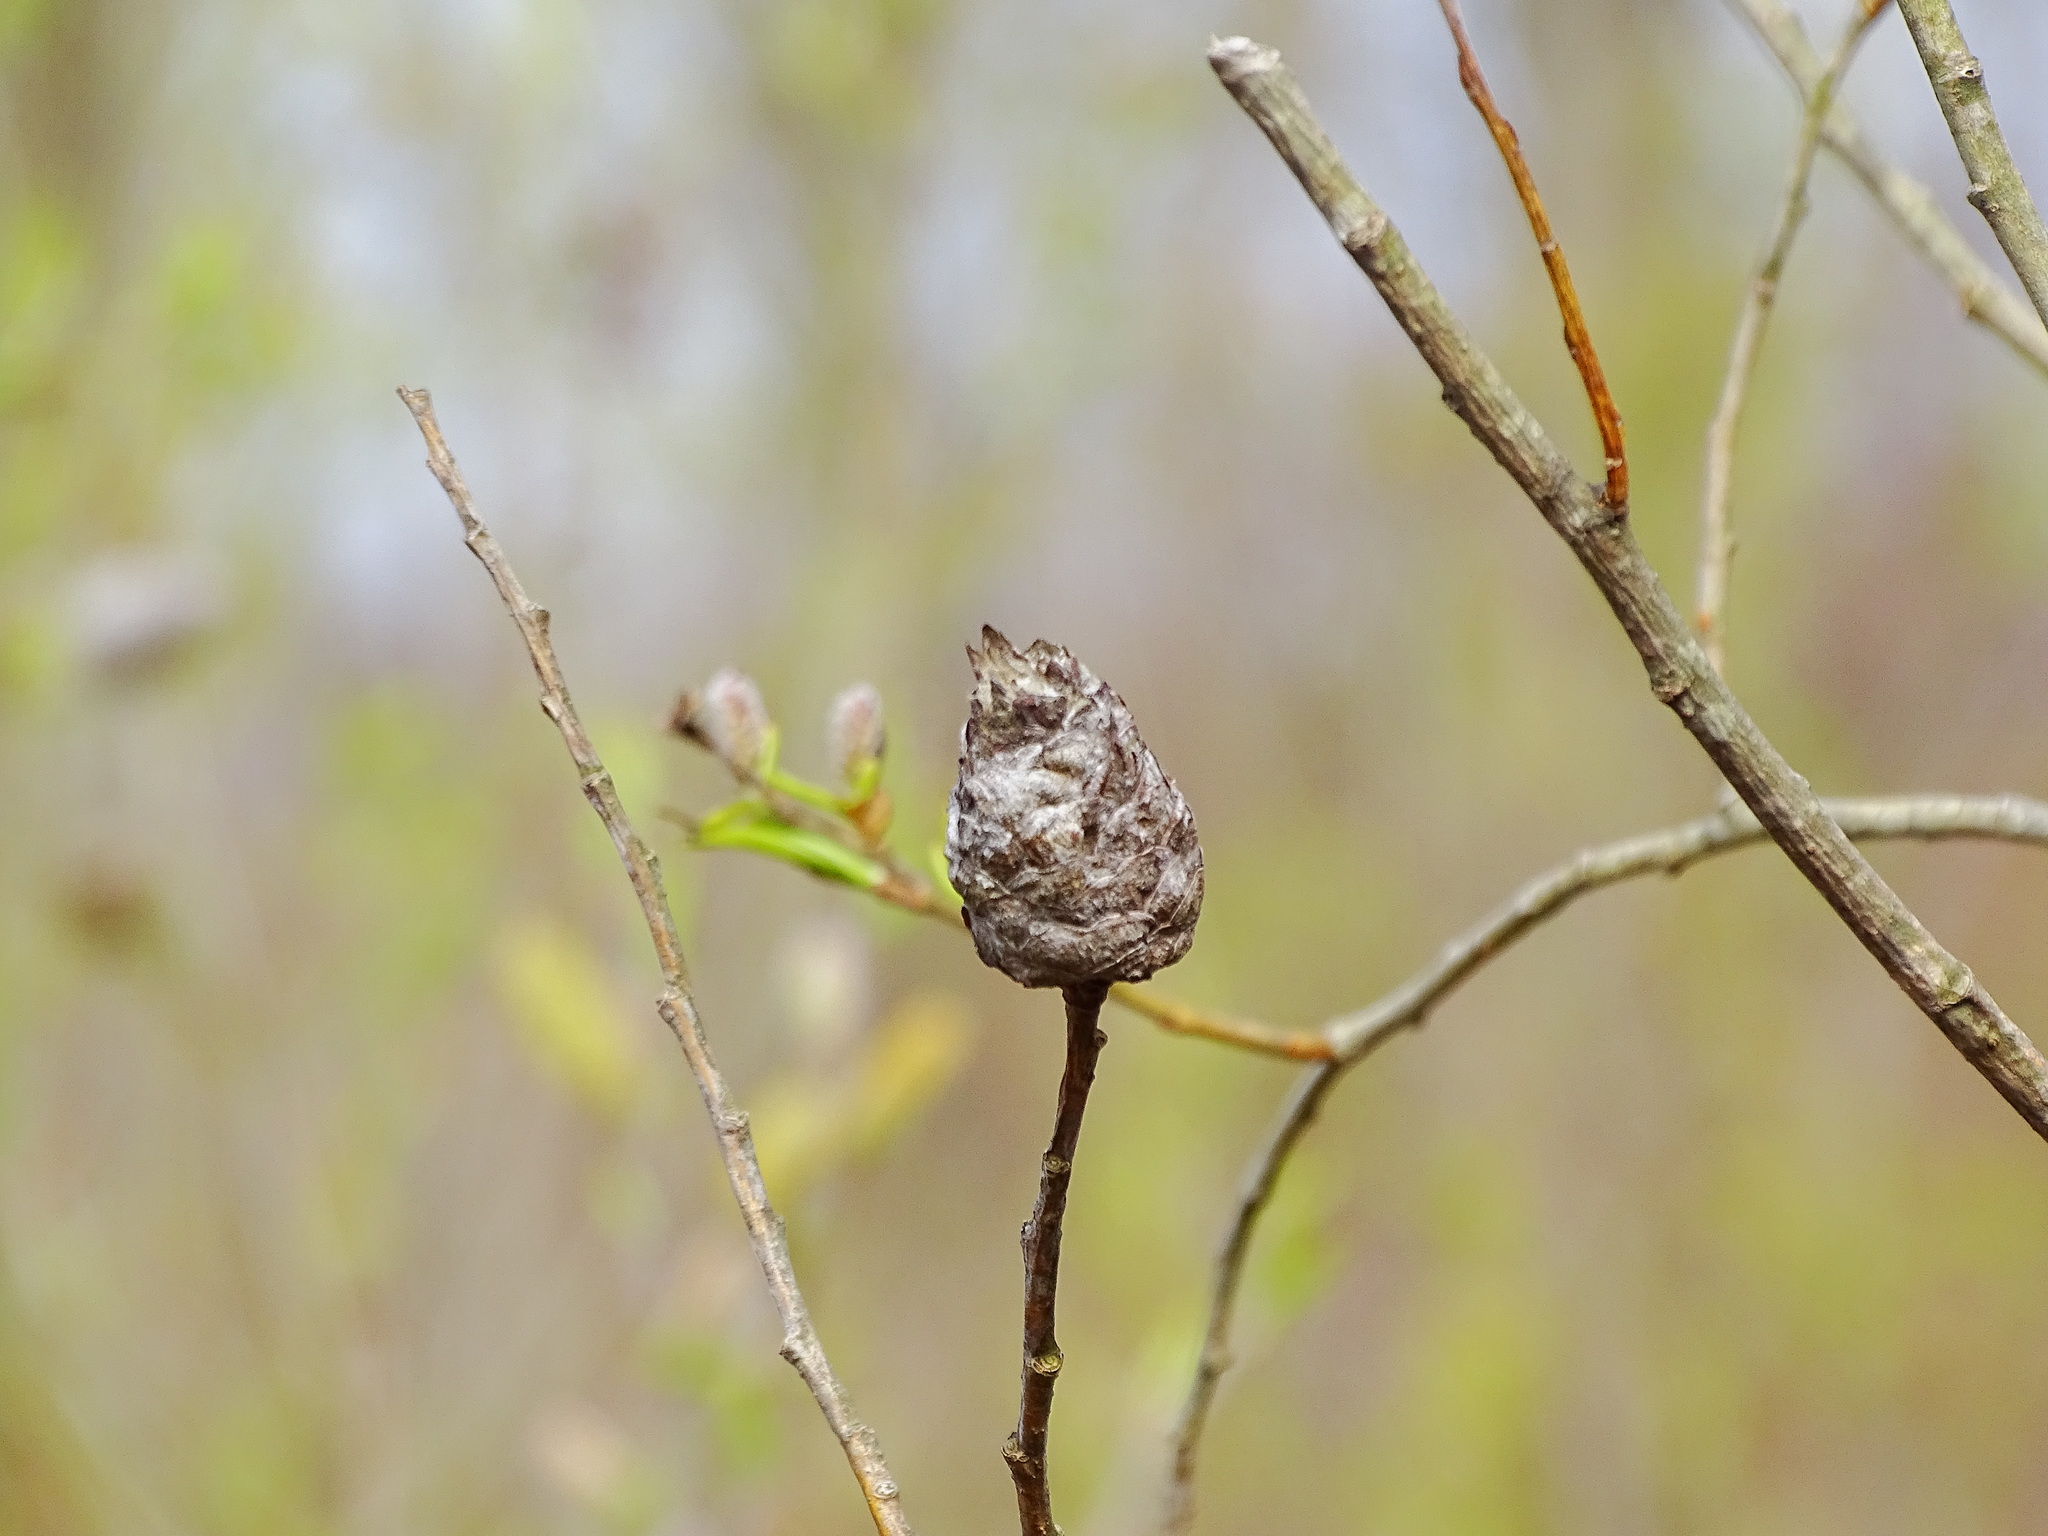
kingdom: Animalia
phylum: Arthropoda
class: Insecta
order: Diptera
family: Cecidomyiidae
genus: Rabdophaga
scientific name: Rabdophaga strobiloides
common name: Willow pinecone gall midge
